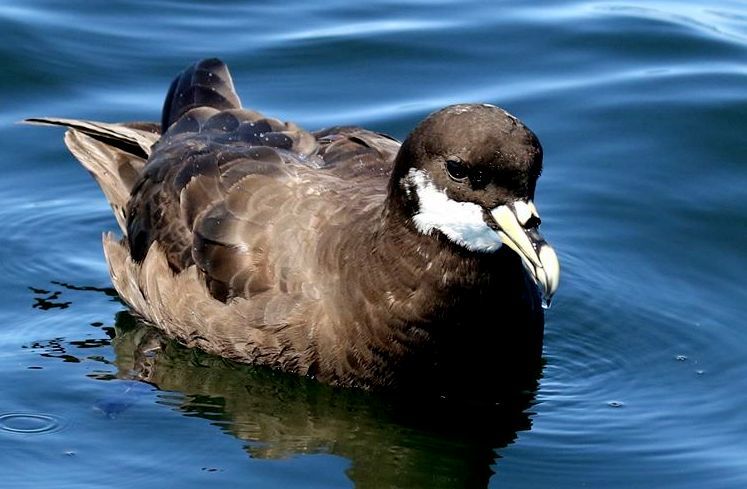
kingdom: Animalia
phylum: Chordata
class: Aves
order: Procellariiformes
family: Procellariidae
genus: Procellaria
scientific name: Procellaria aequinoctialis
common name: White-chinned petrel
